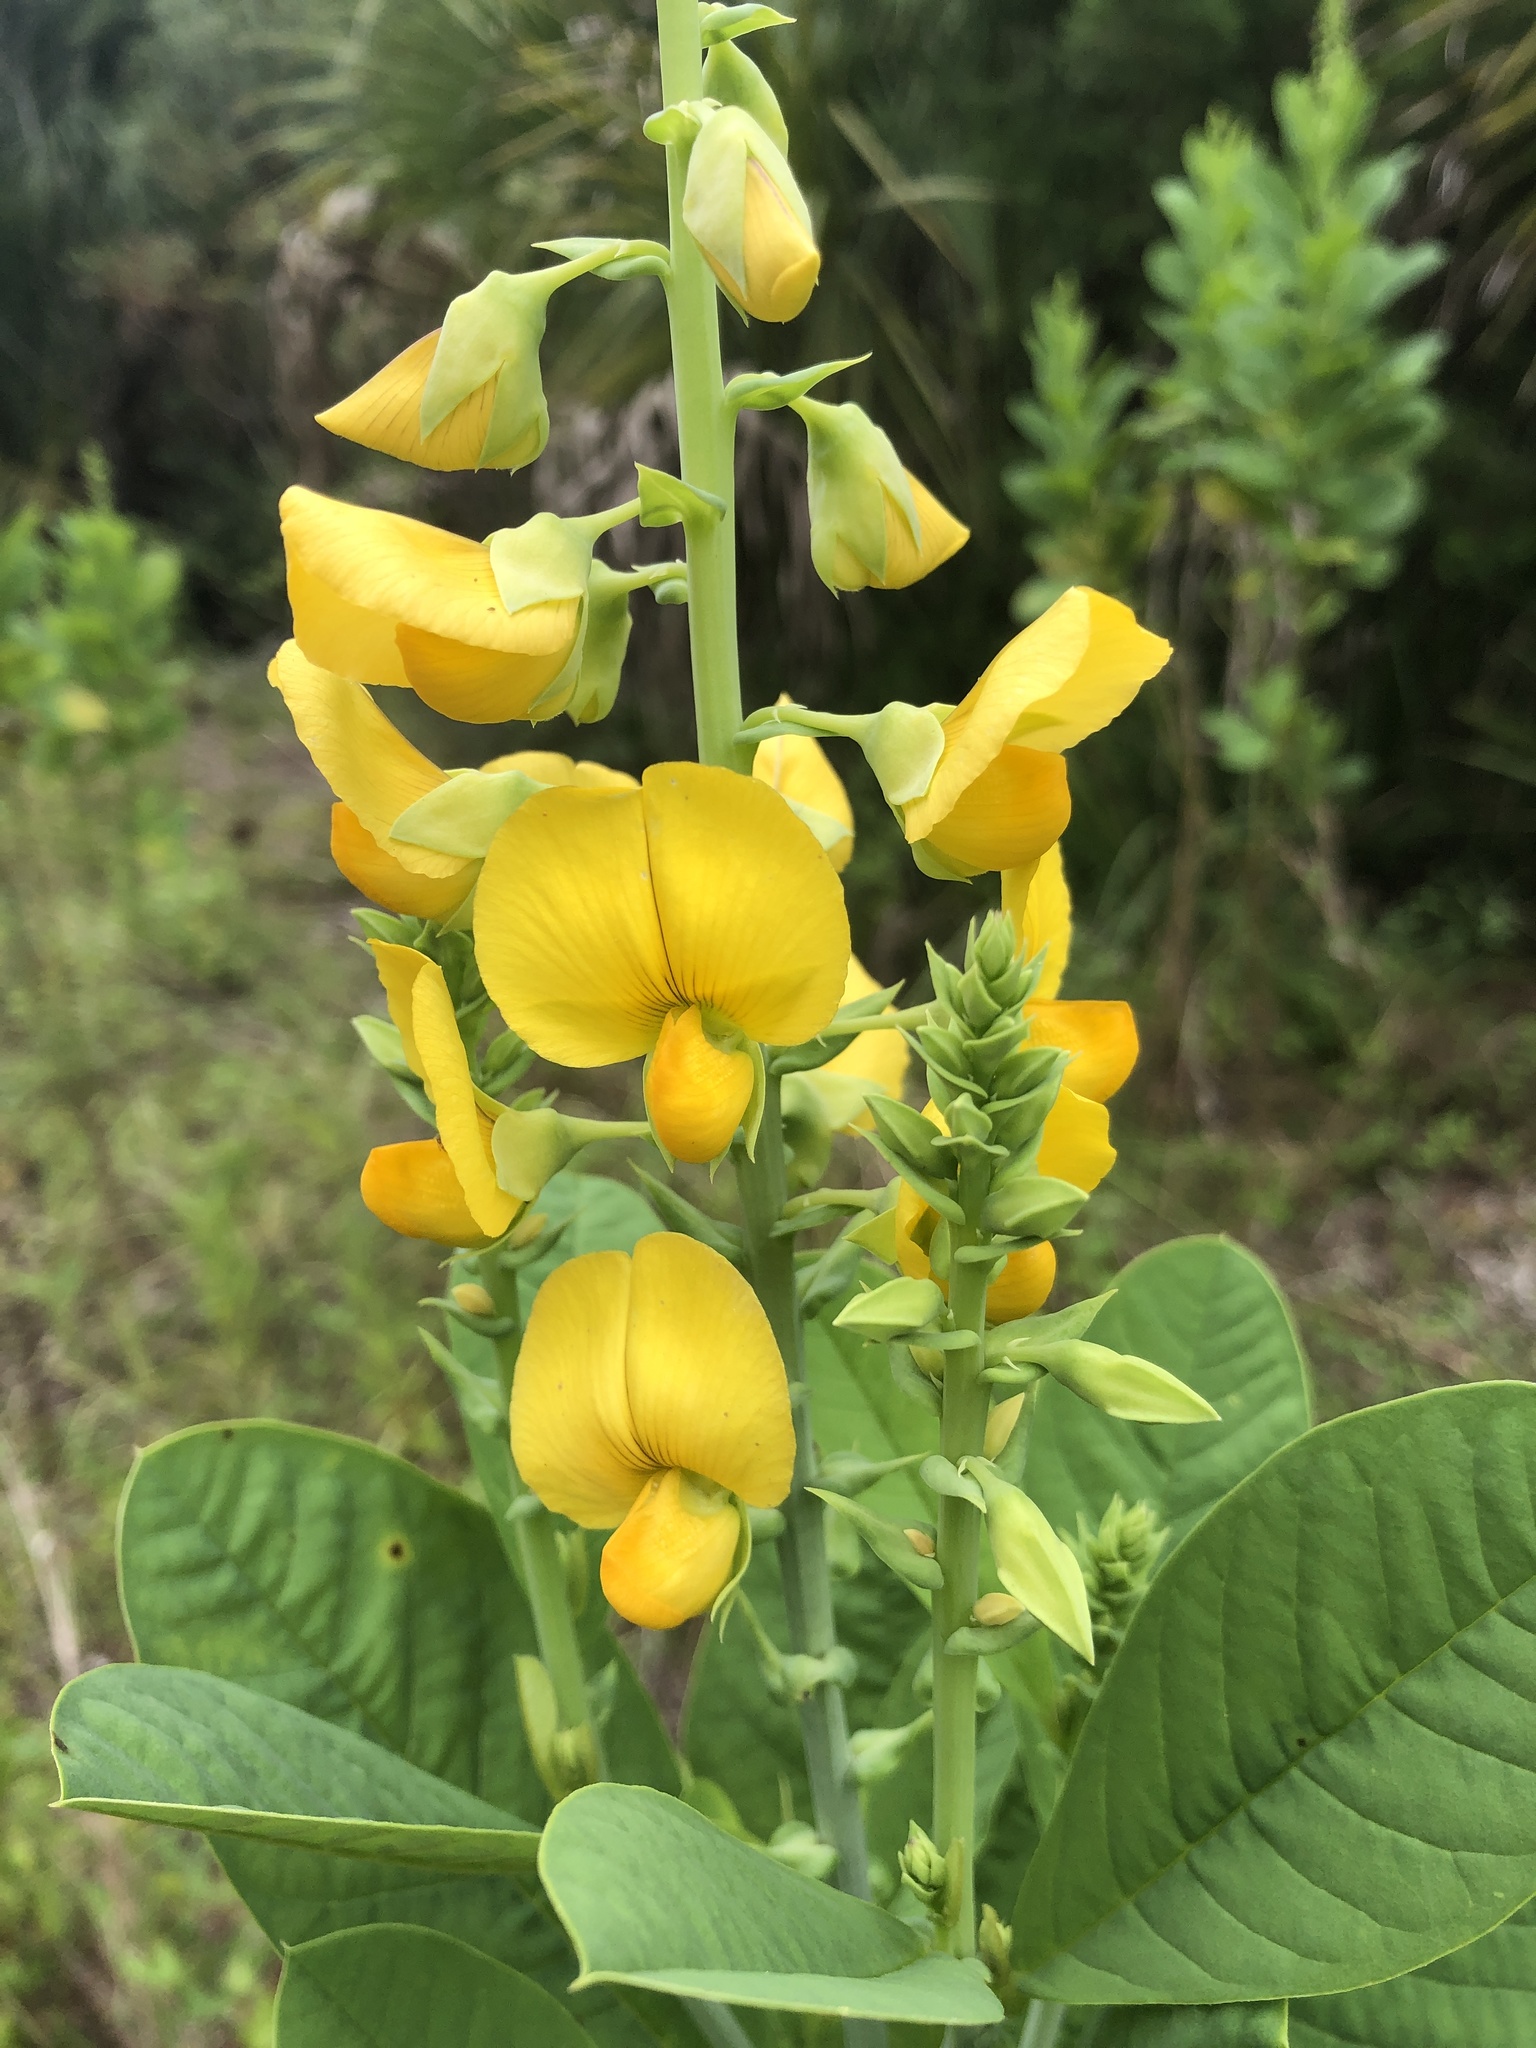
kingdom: Plantae
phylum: Tracheophyta
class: Magnoliopsida
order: Fabales
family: Fabaceae
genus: Crotalaria
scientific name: Crotalaria spectabilis
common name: Showy rattlebox
